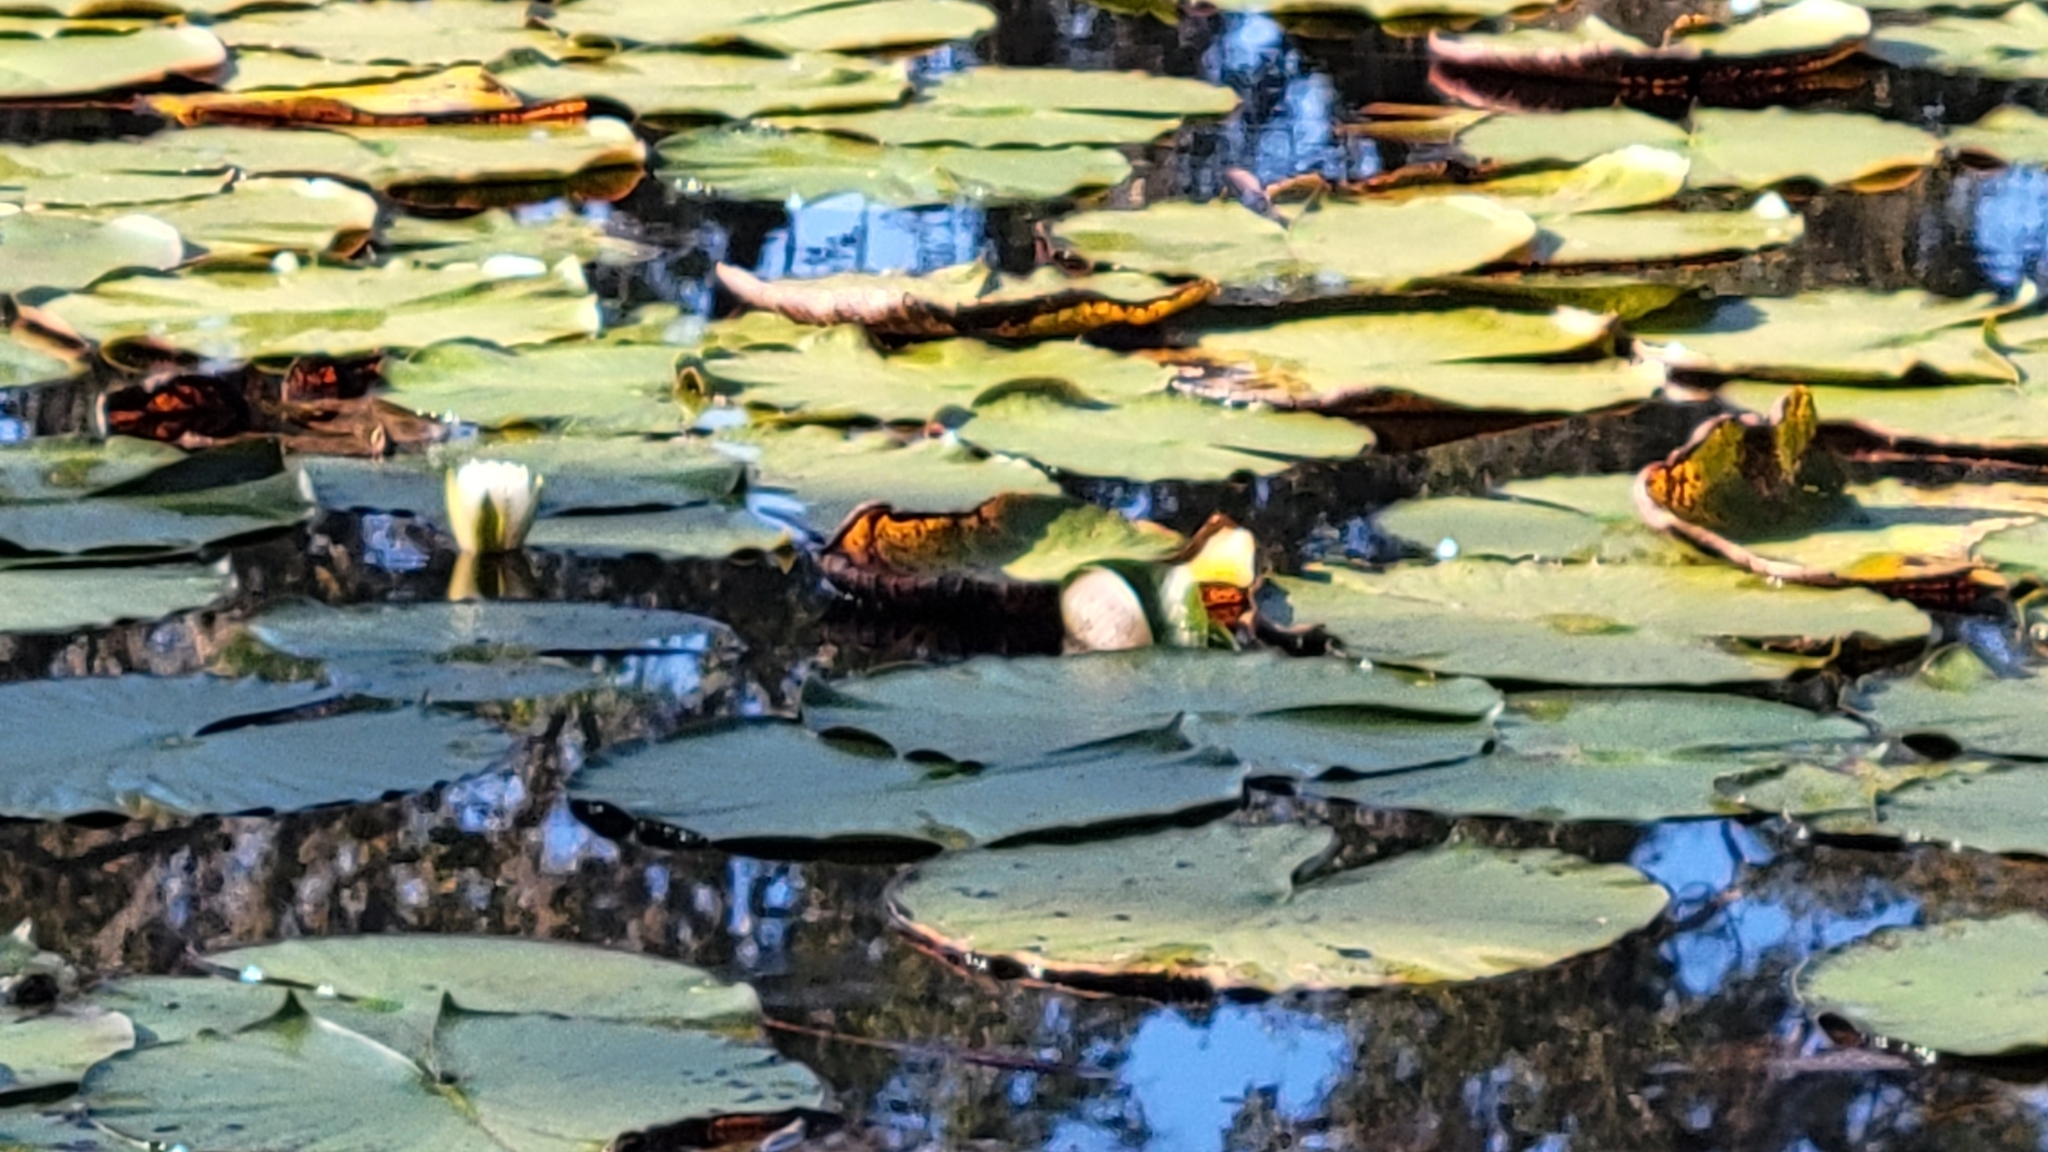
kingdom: Plantae
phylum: Tracheophyta
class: Magnoliopsida
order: Nymphaeales
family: Nymphaeaceae
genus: Nymphaea
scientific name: Nymphaea odorata
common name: Fragrant water-lily
